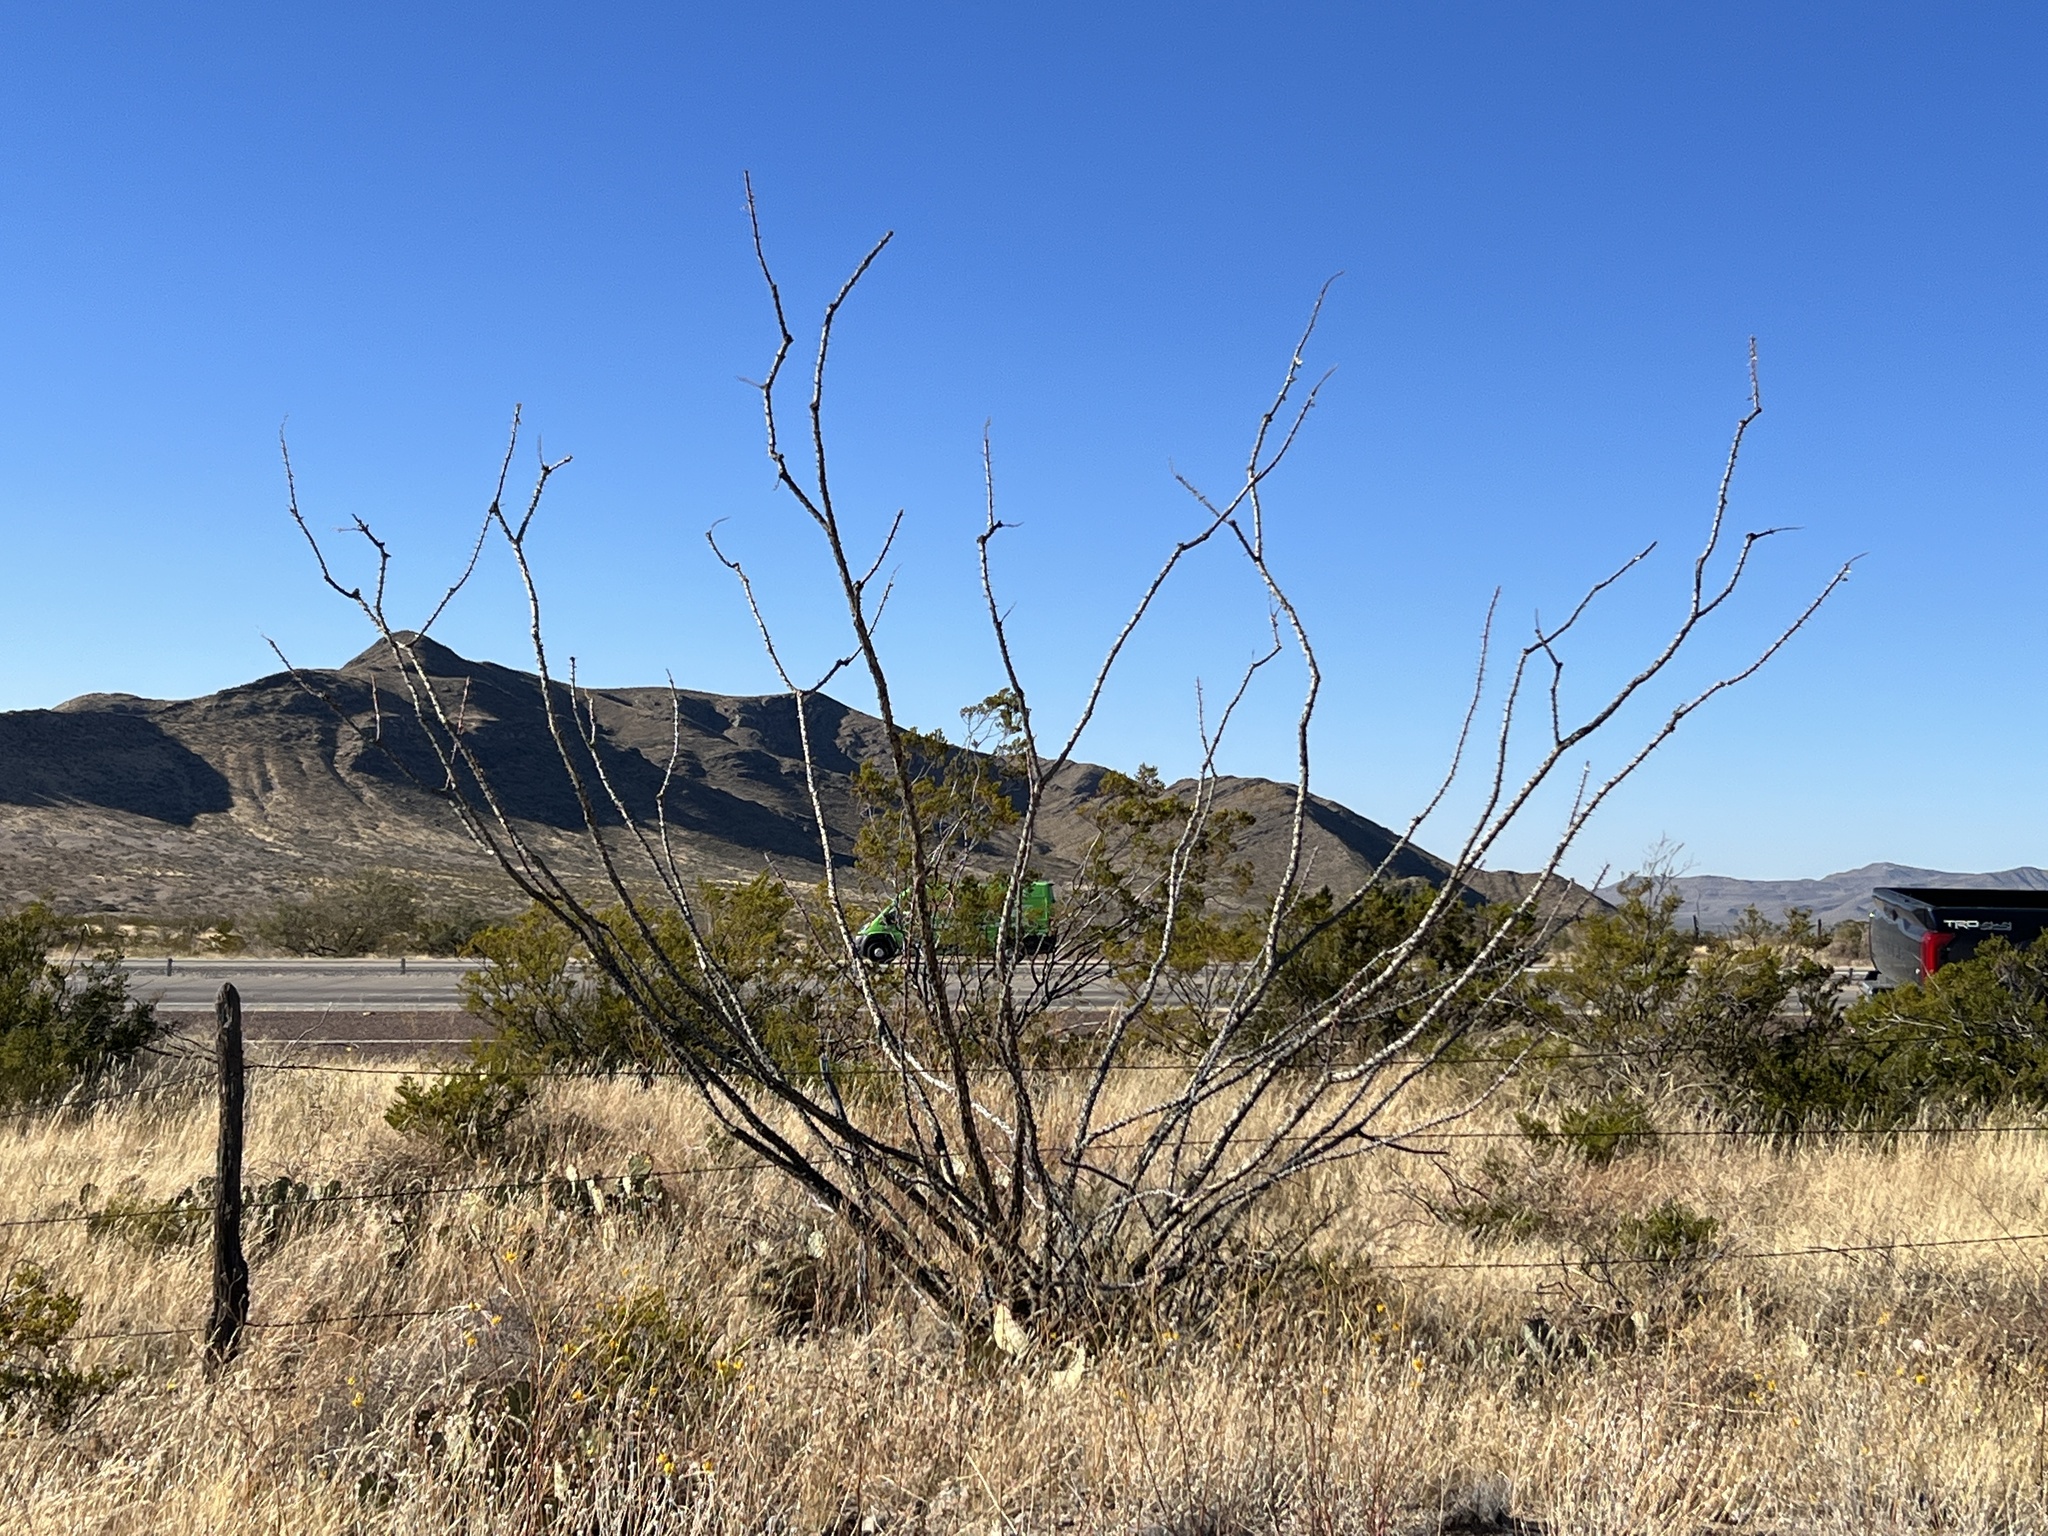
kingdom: Plantae
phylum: Tracheophyta
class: Magnoliopsida
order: Ericales
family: Fouquieriaceae
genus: Fouquieria
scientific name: Fouquieria splendens
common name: Vine-cactus
